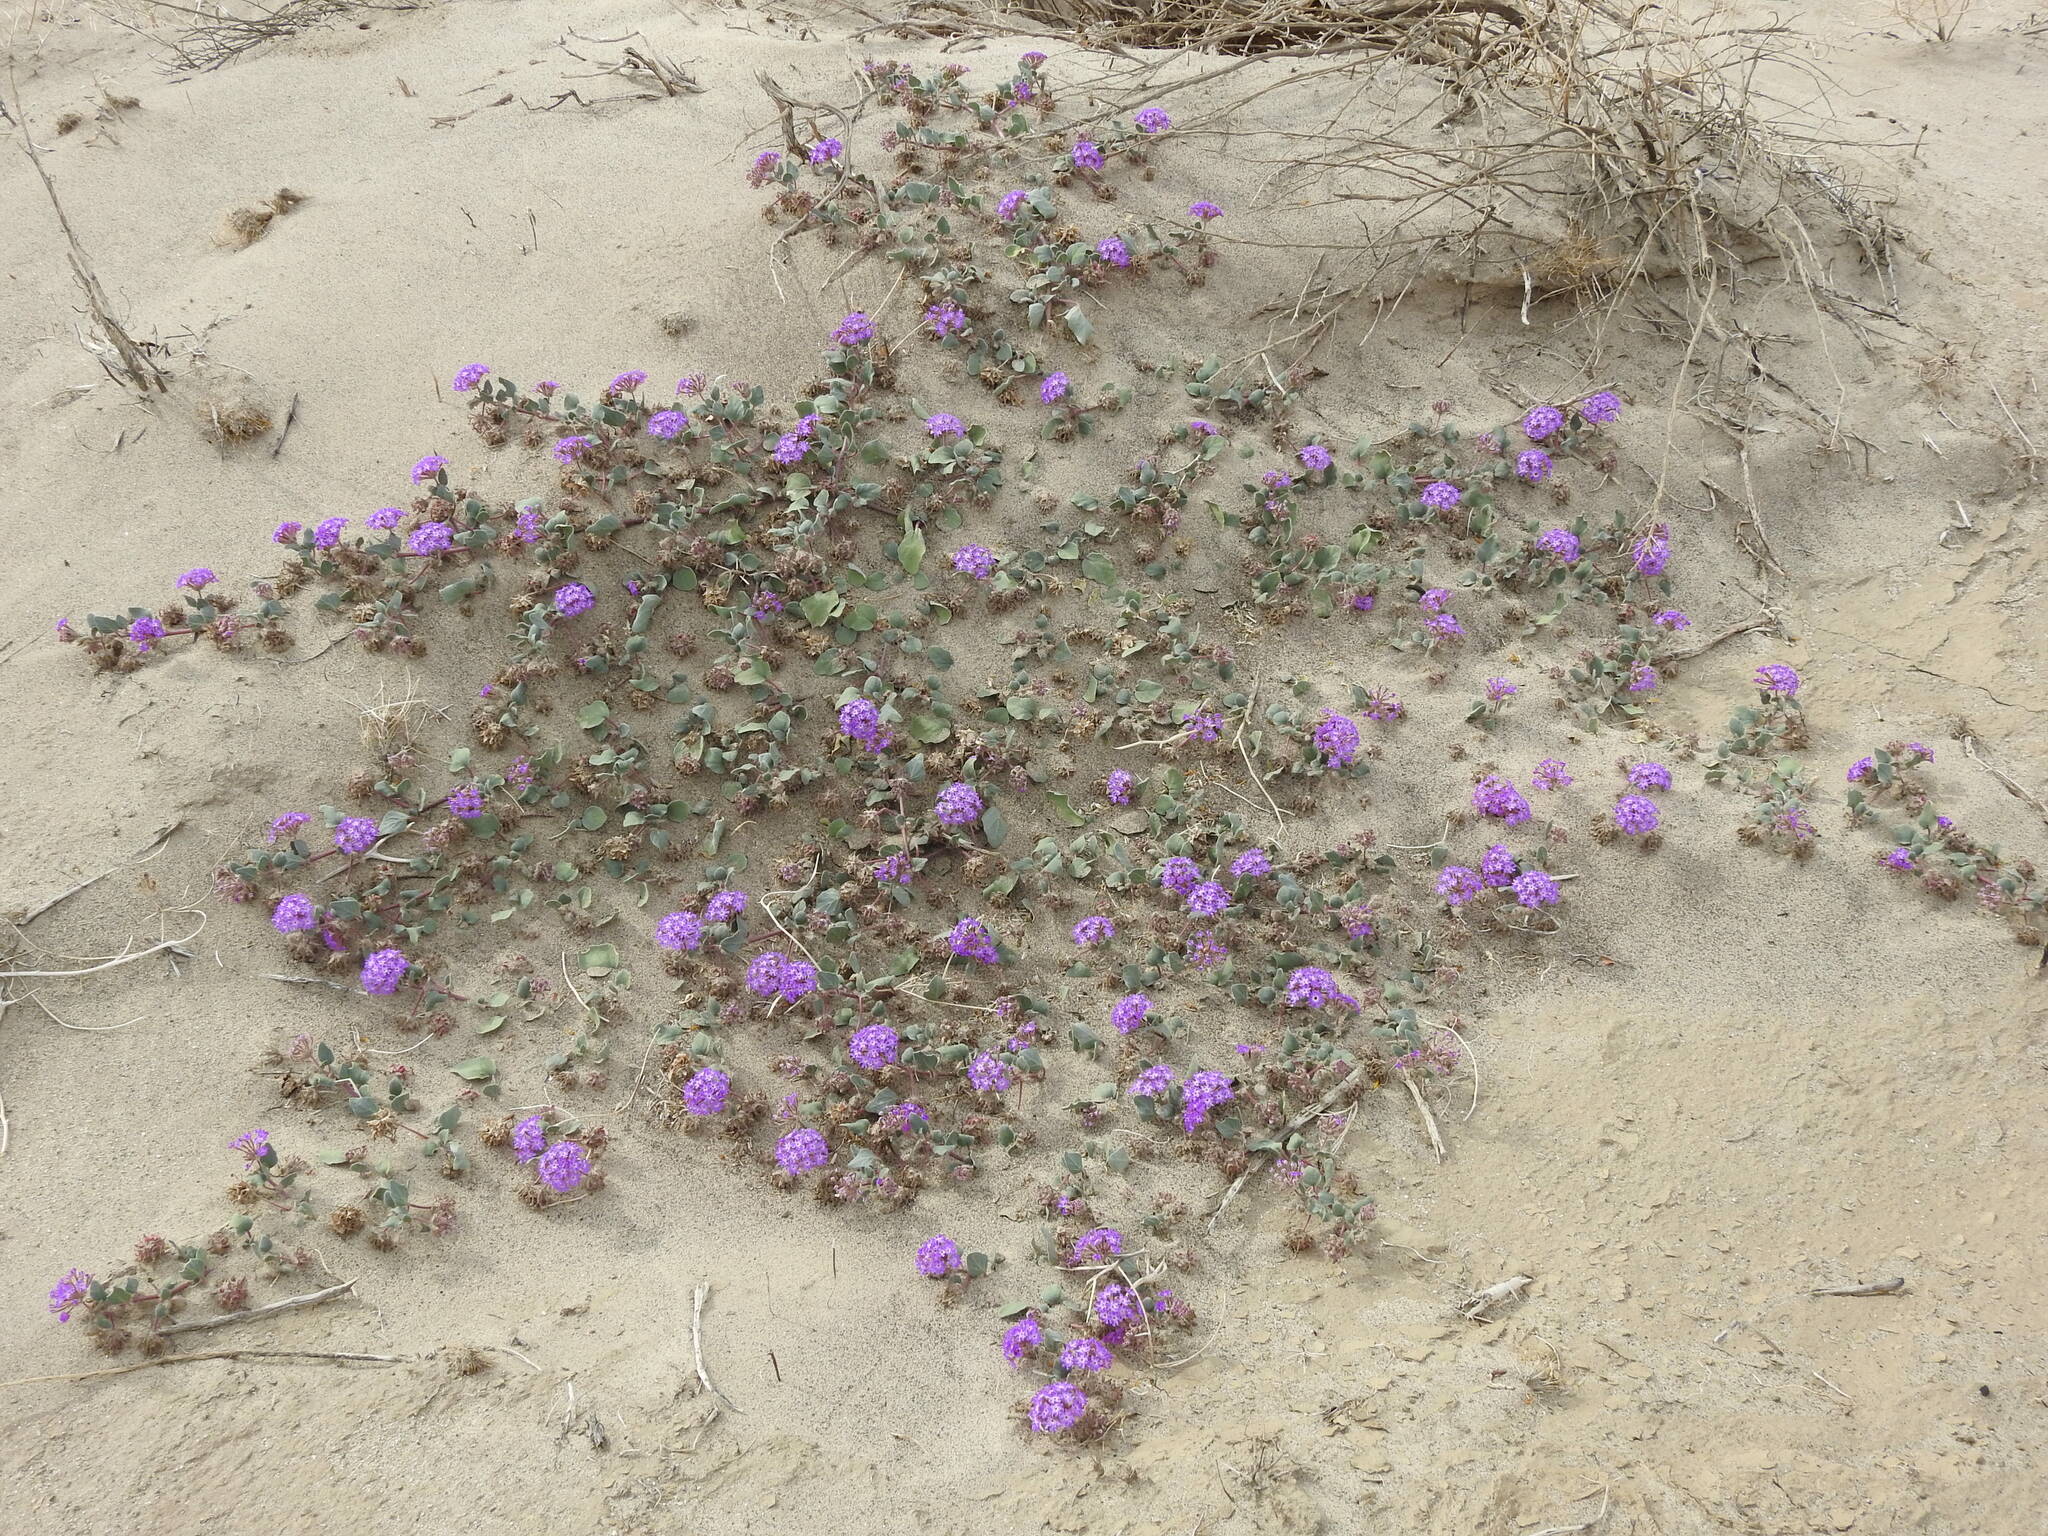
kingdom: Plantae
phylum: Tracheophyta
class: Magnoliopsida
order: Caryophyllales
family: Nyctaginaceae
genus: Abronia
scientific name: Abronia villosa
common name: Desert sand-verbena
